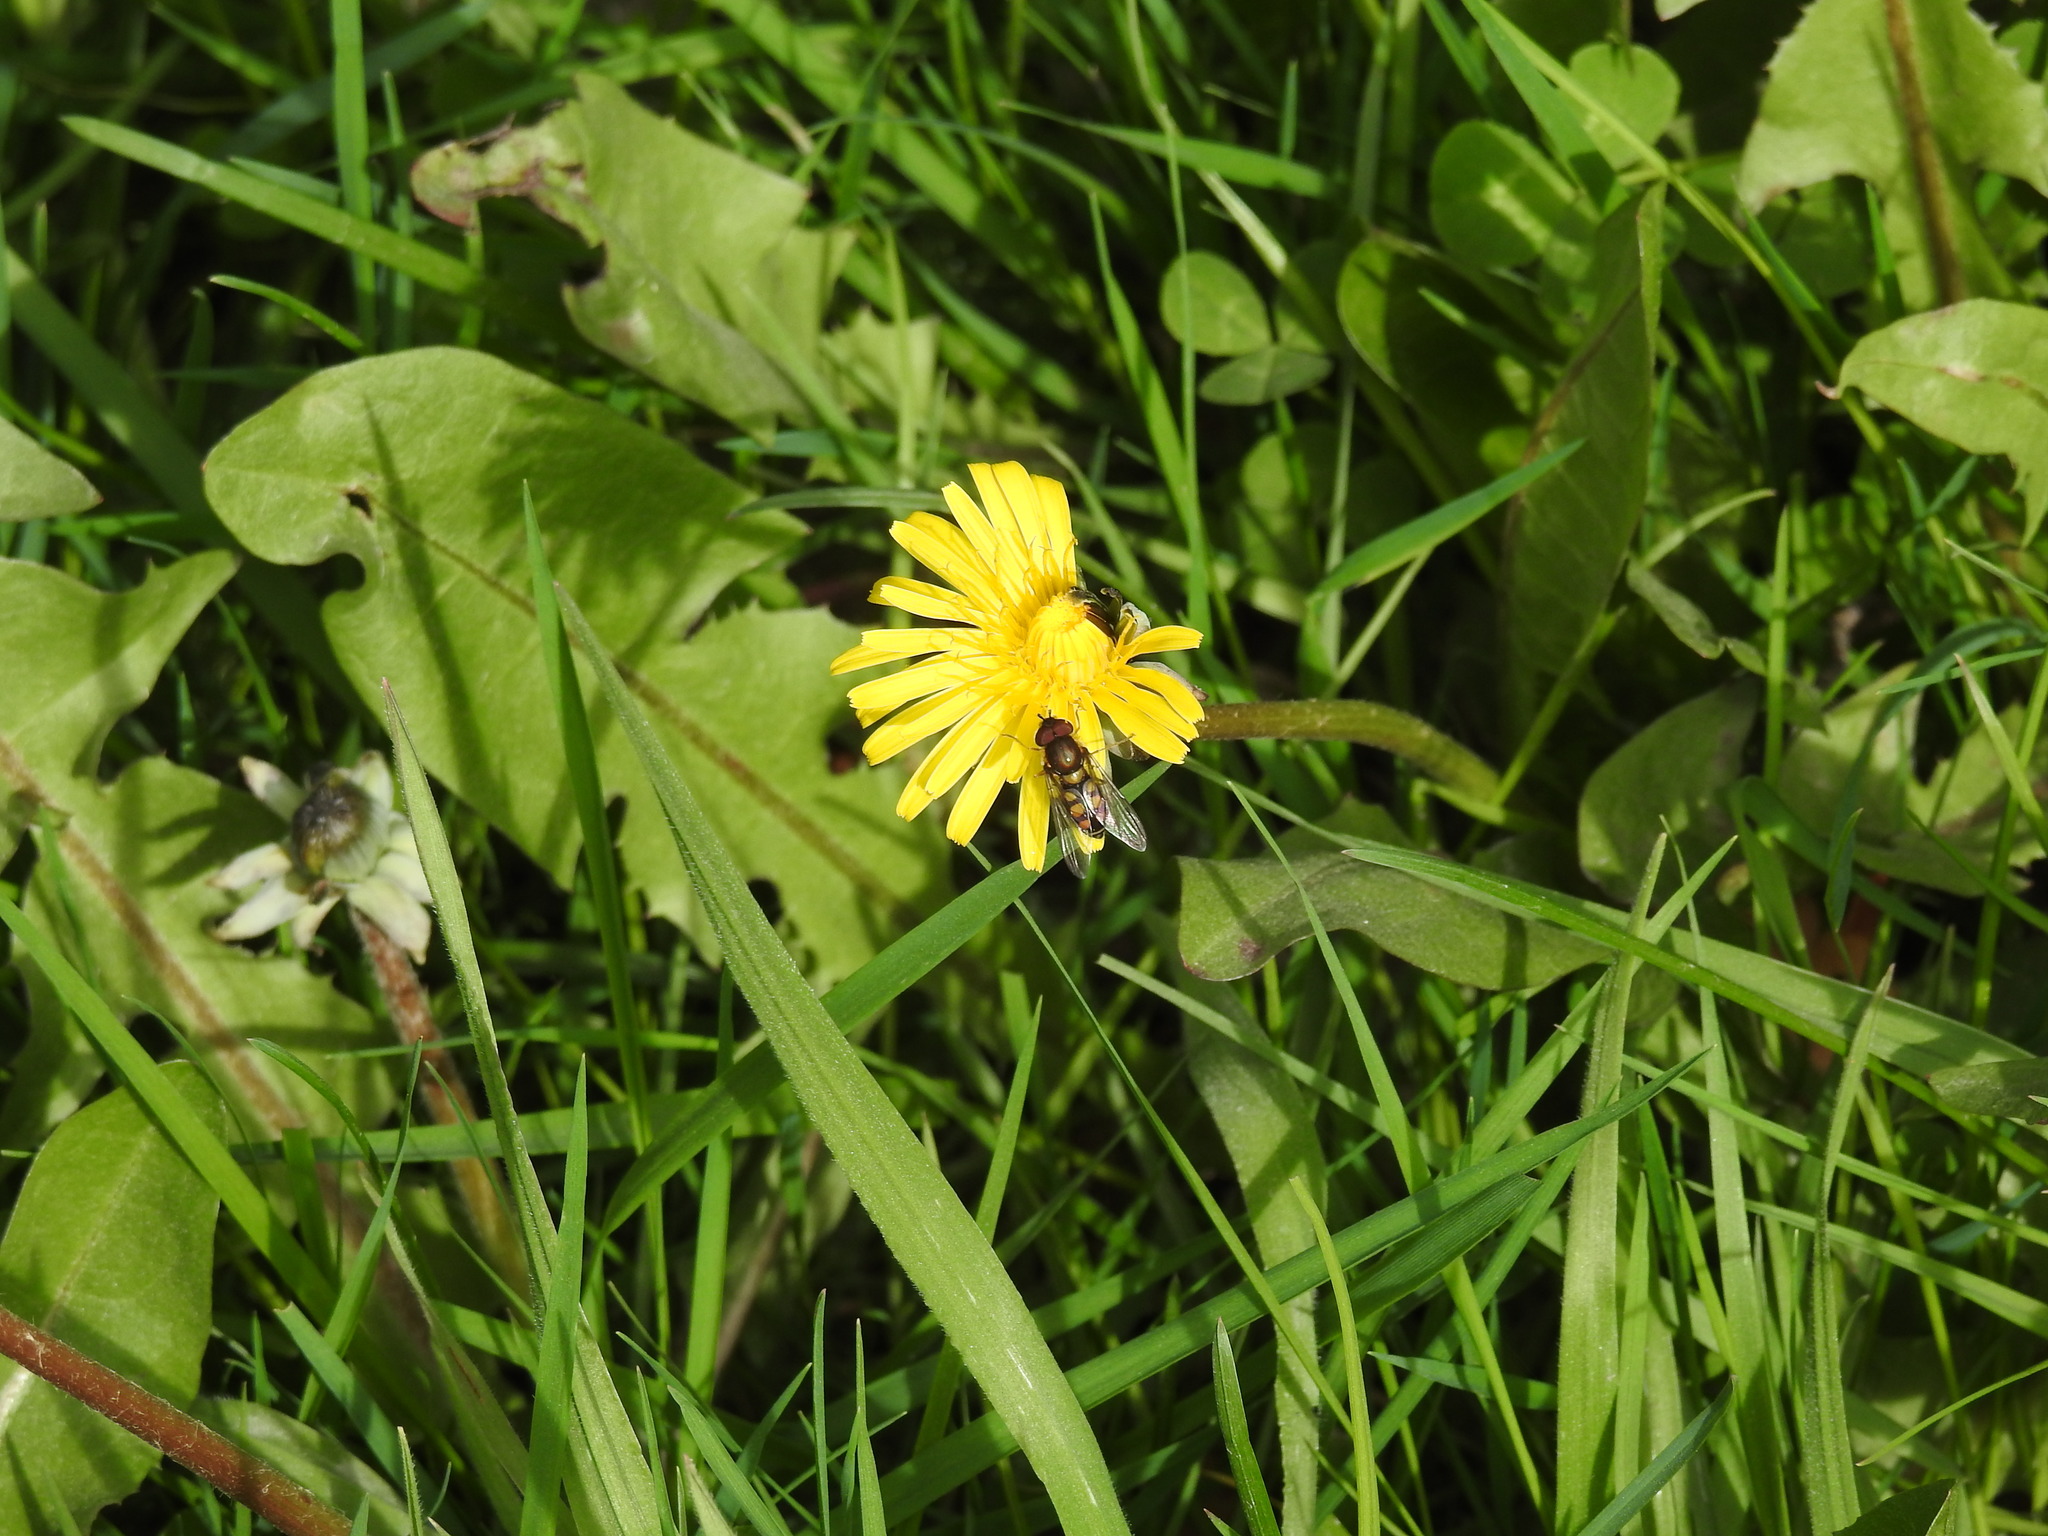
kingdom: Animalia
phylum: Arthropoda
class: Insecta
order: Diptera
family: Syrphidae
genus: Syrphus
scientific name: Syrphus octomaculatus
